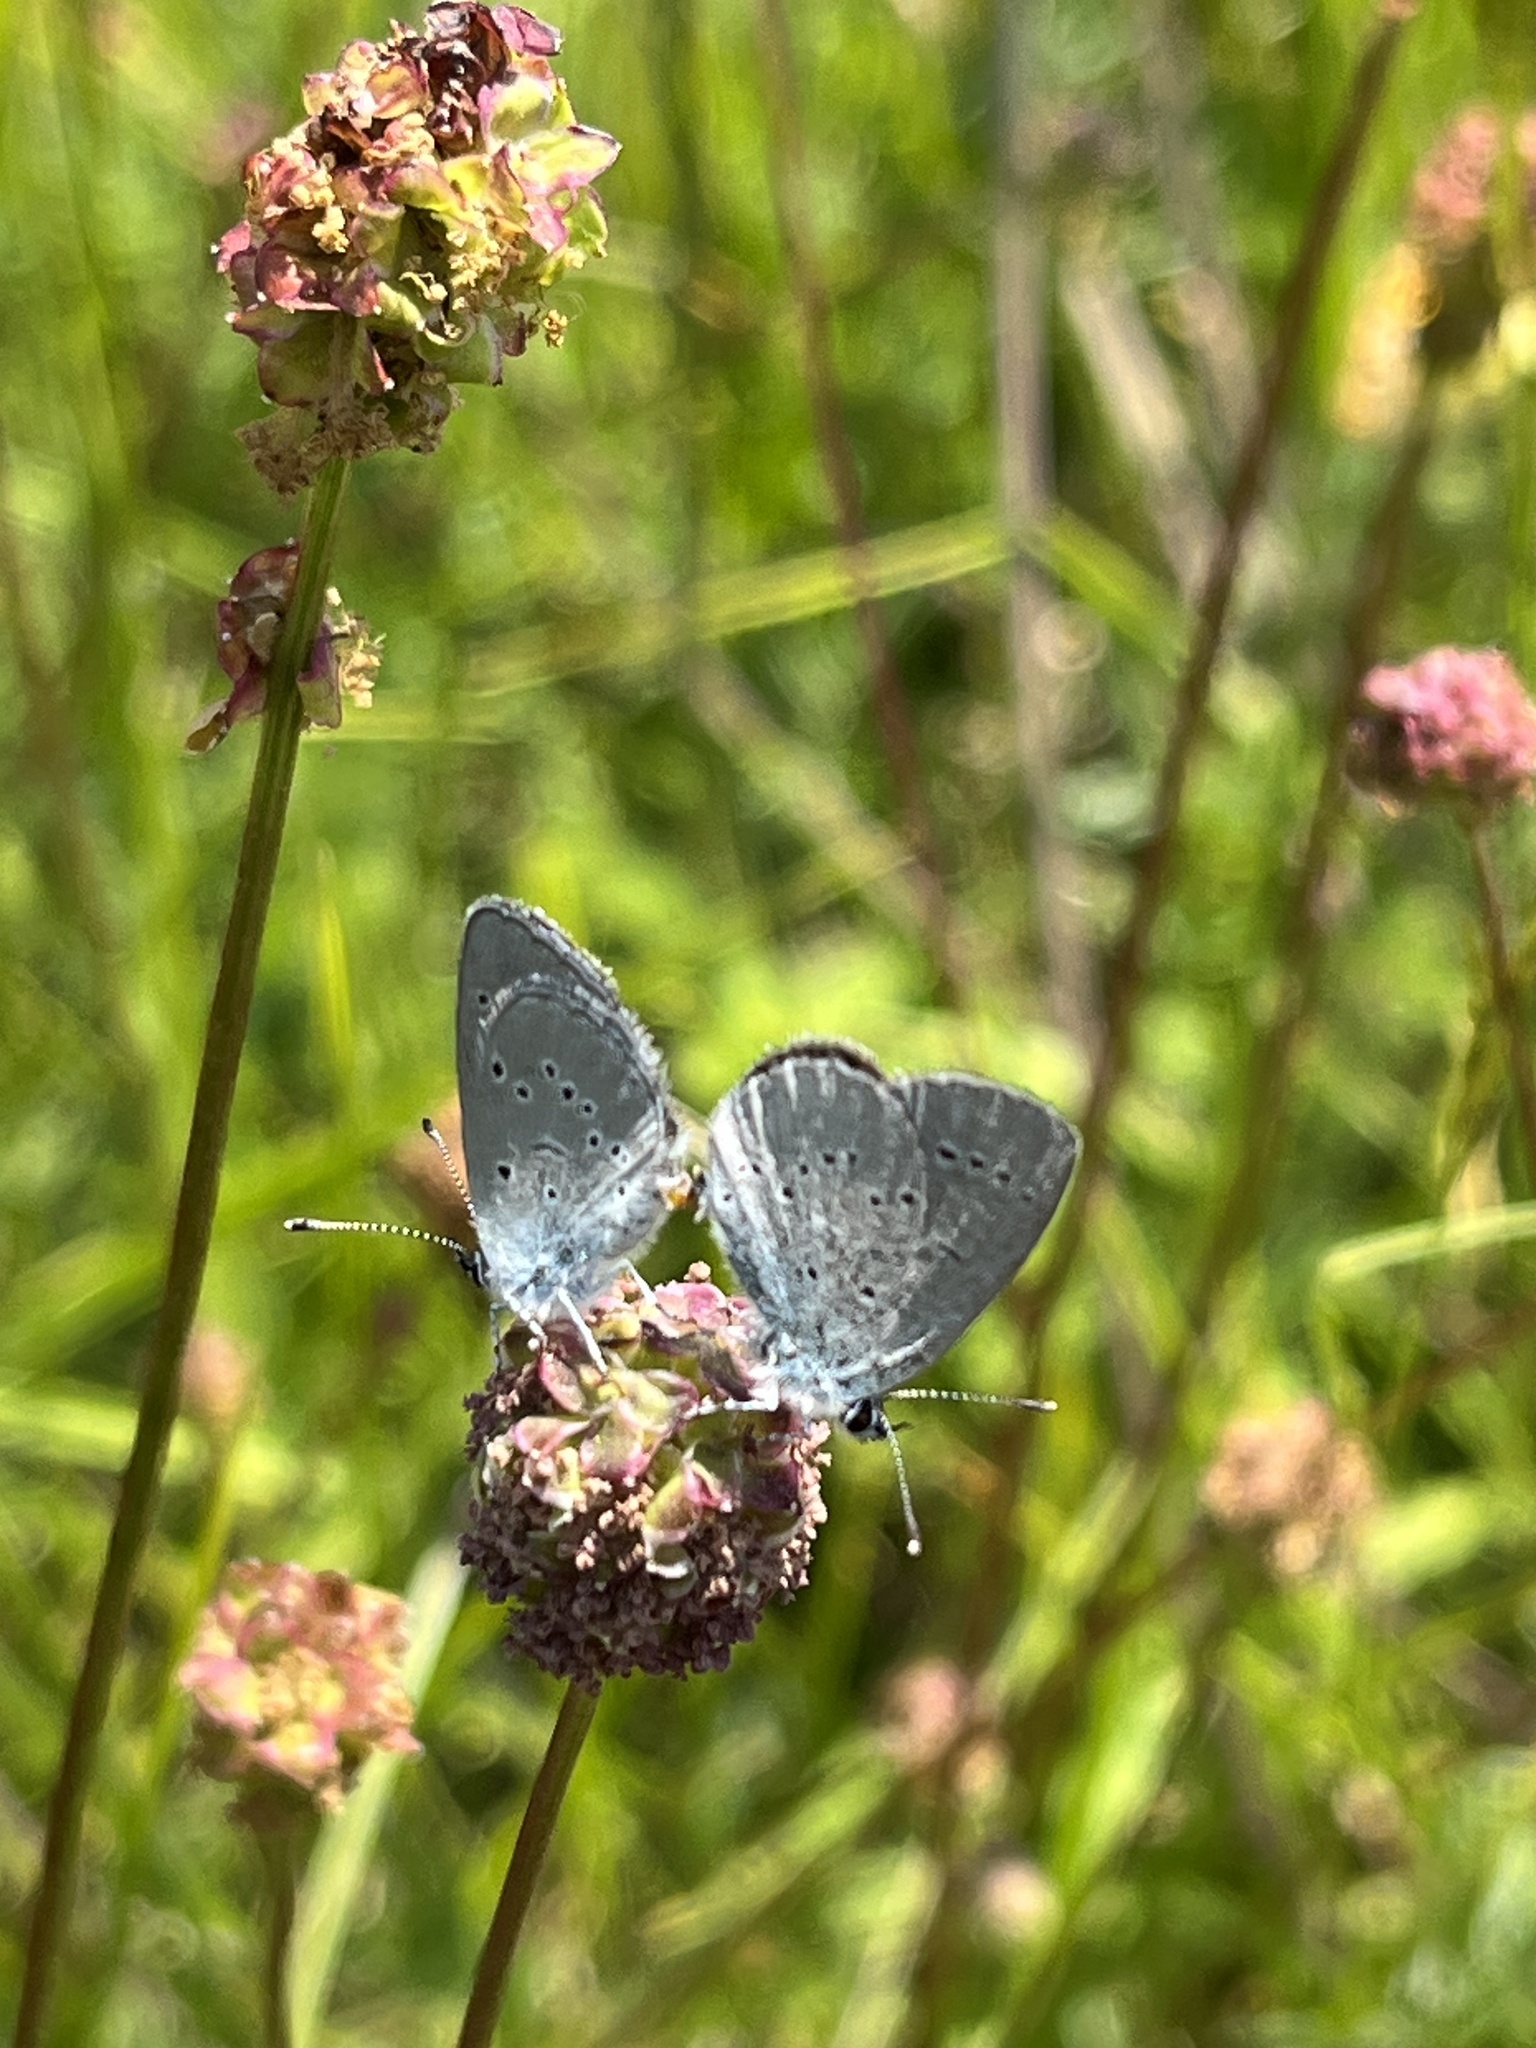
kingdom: Animalia
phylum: Arthropoda
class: Insecta
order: Lepidoptera
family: Lycaenidae
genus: Cupido
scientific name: Cupido minimus
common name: Small blue
